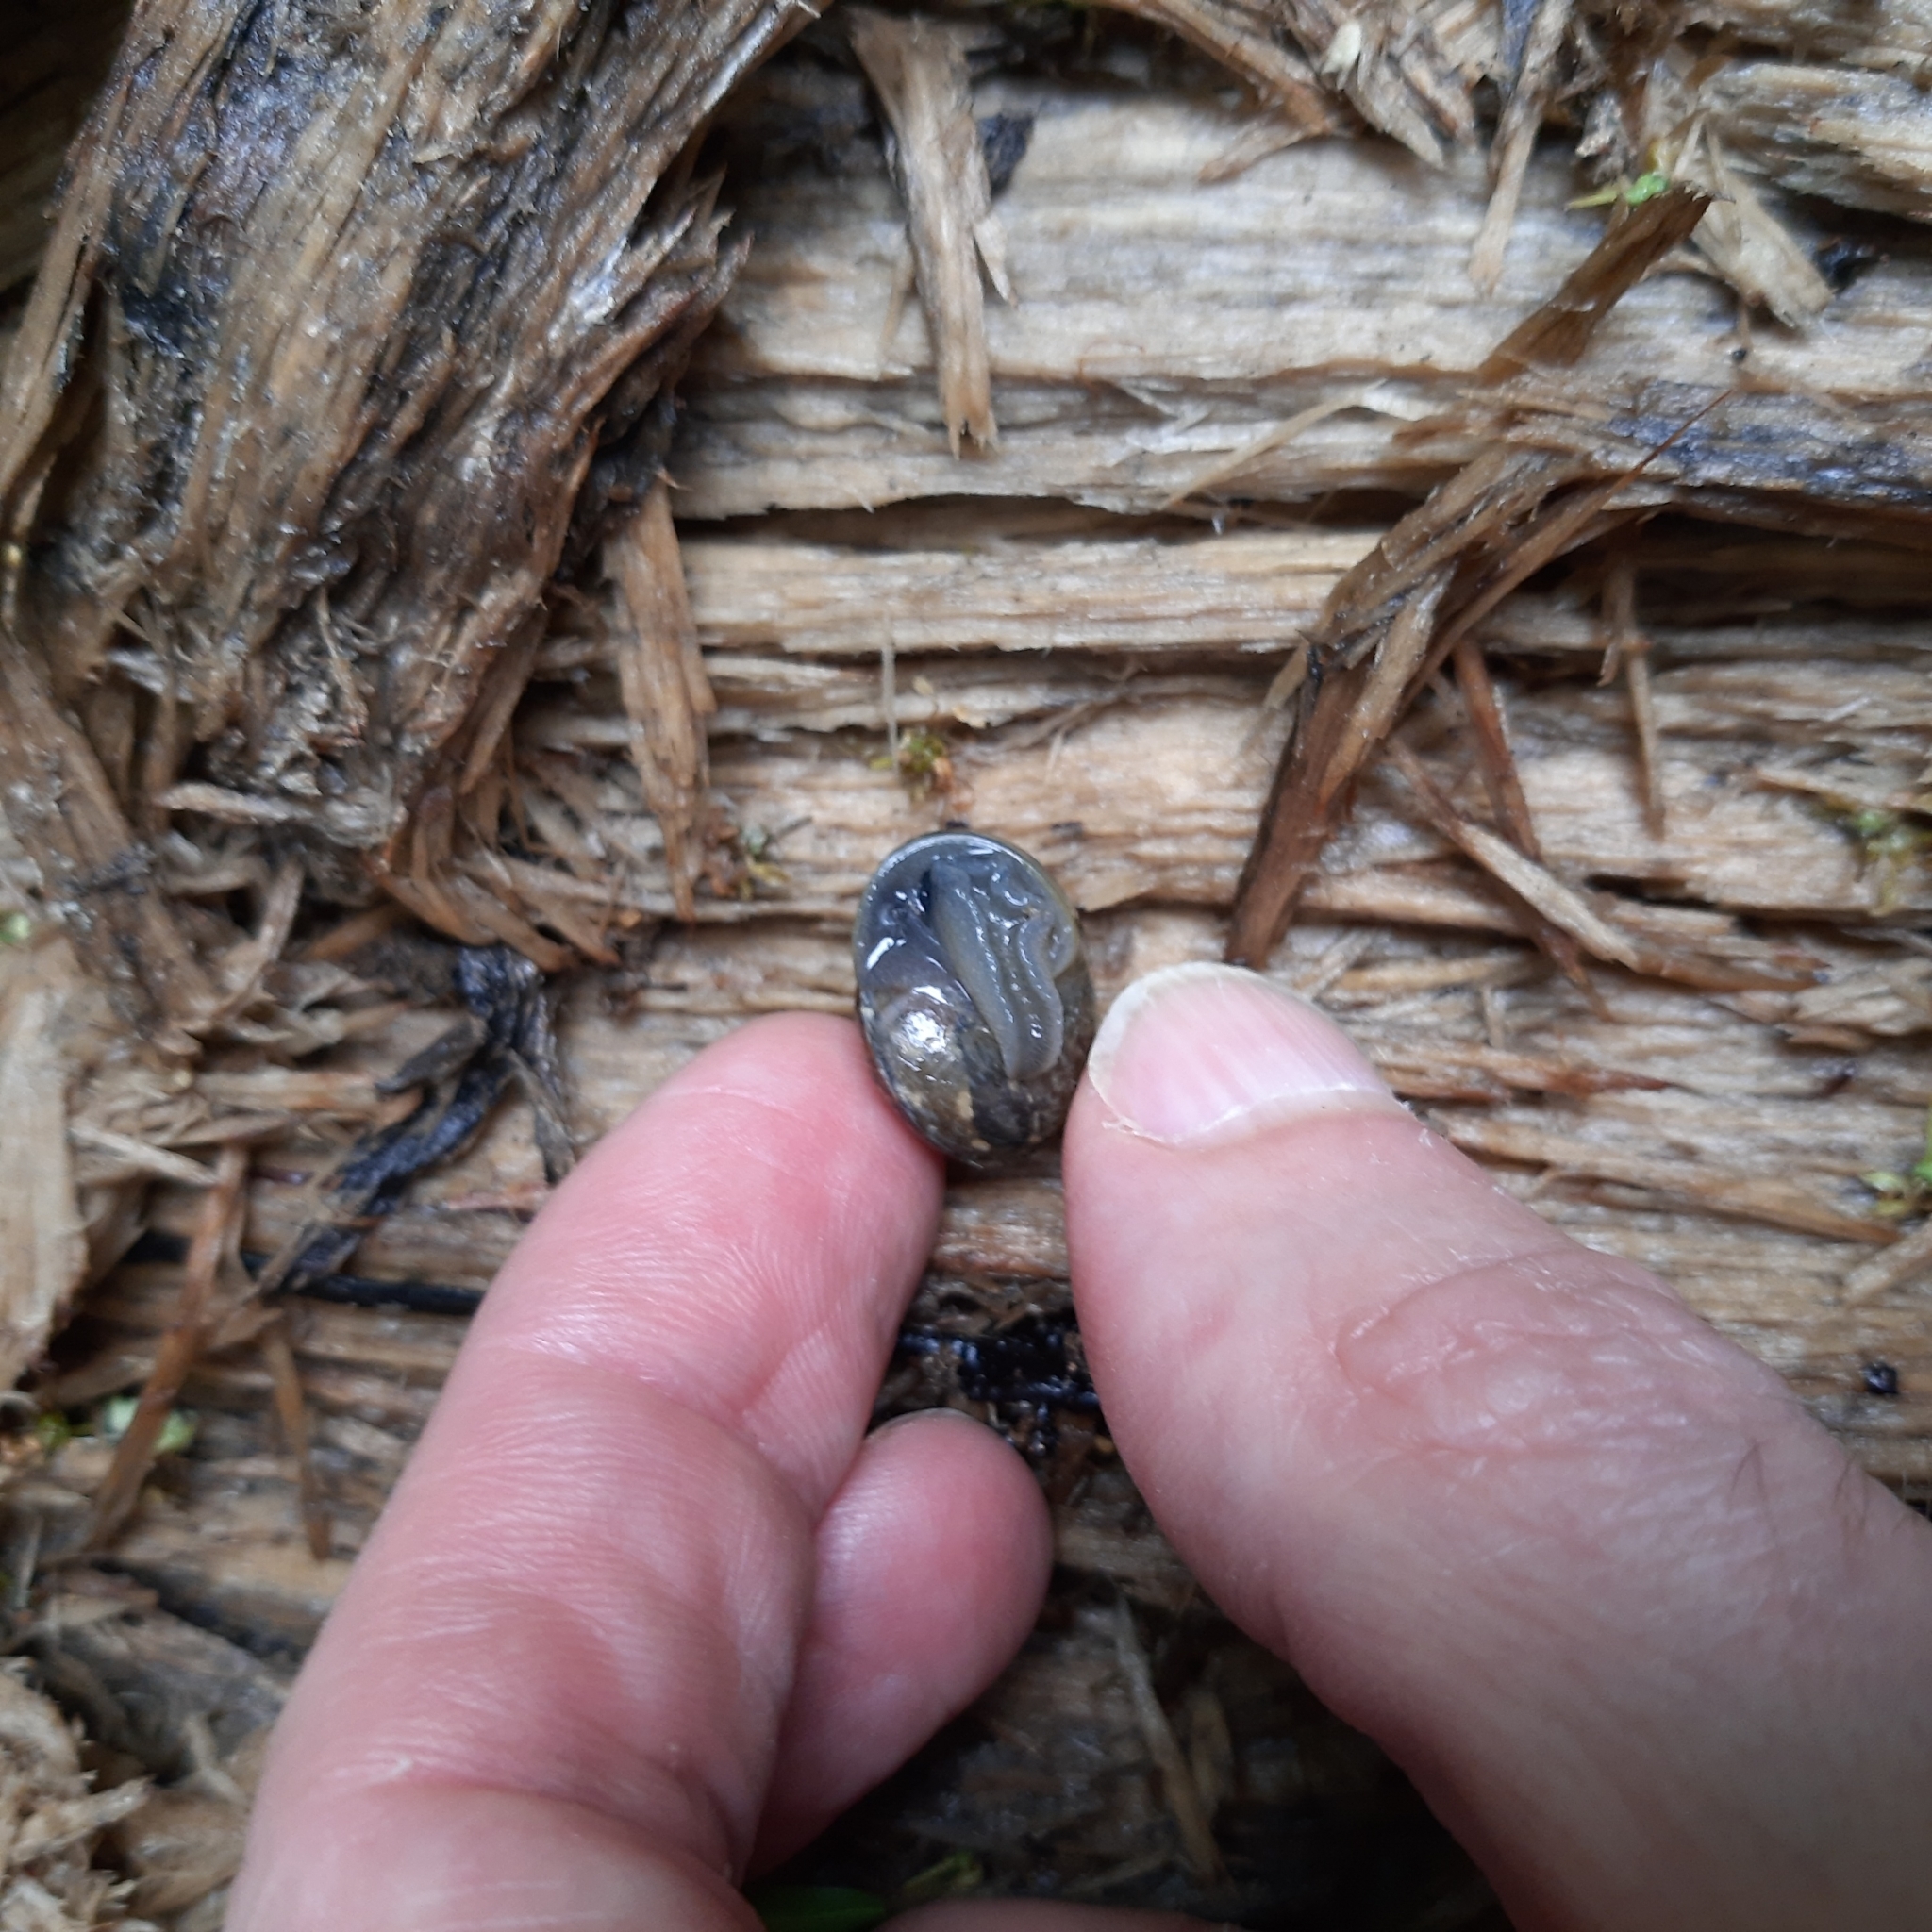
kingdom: Animalia
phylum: Mollusca
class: Gastropoda
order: Stylommatophora
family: Helicidae
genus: Arianta
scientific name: Arianta arbustorum
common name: Copse snail
